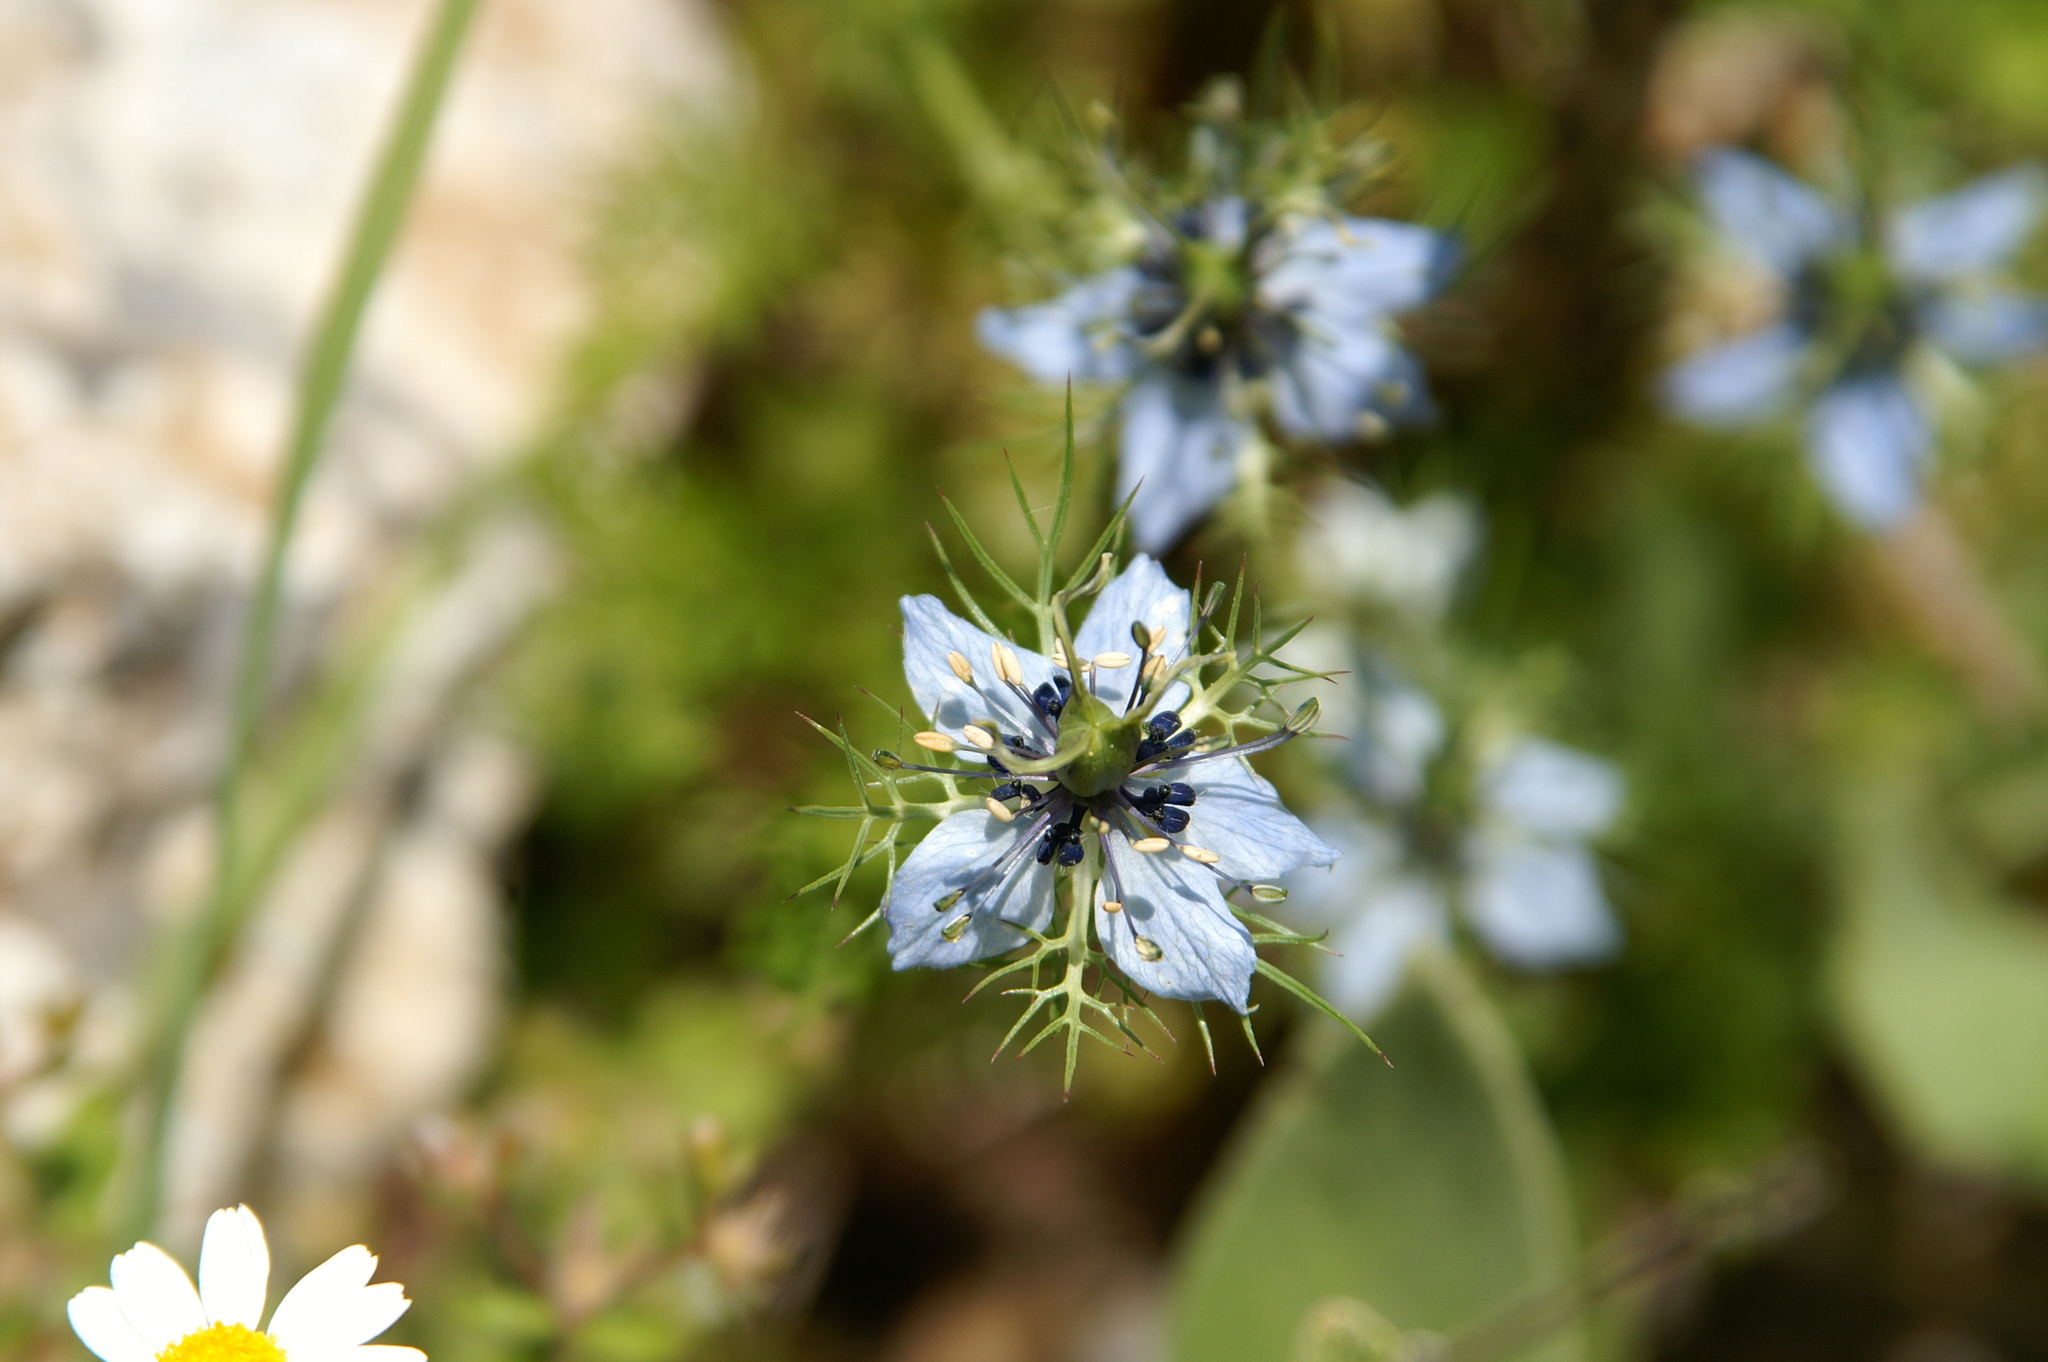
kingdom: Plantae
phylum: Tracheophyta
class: Magnoliopsida
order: Ranunculales
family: Ranunculaceae
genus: Nigella
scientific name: Nigella damascena
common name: Love-in-a-mist
